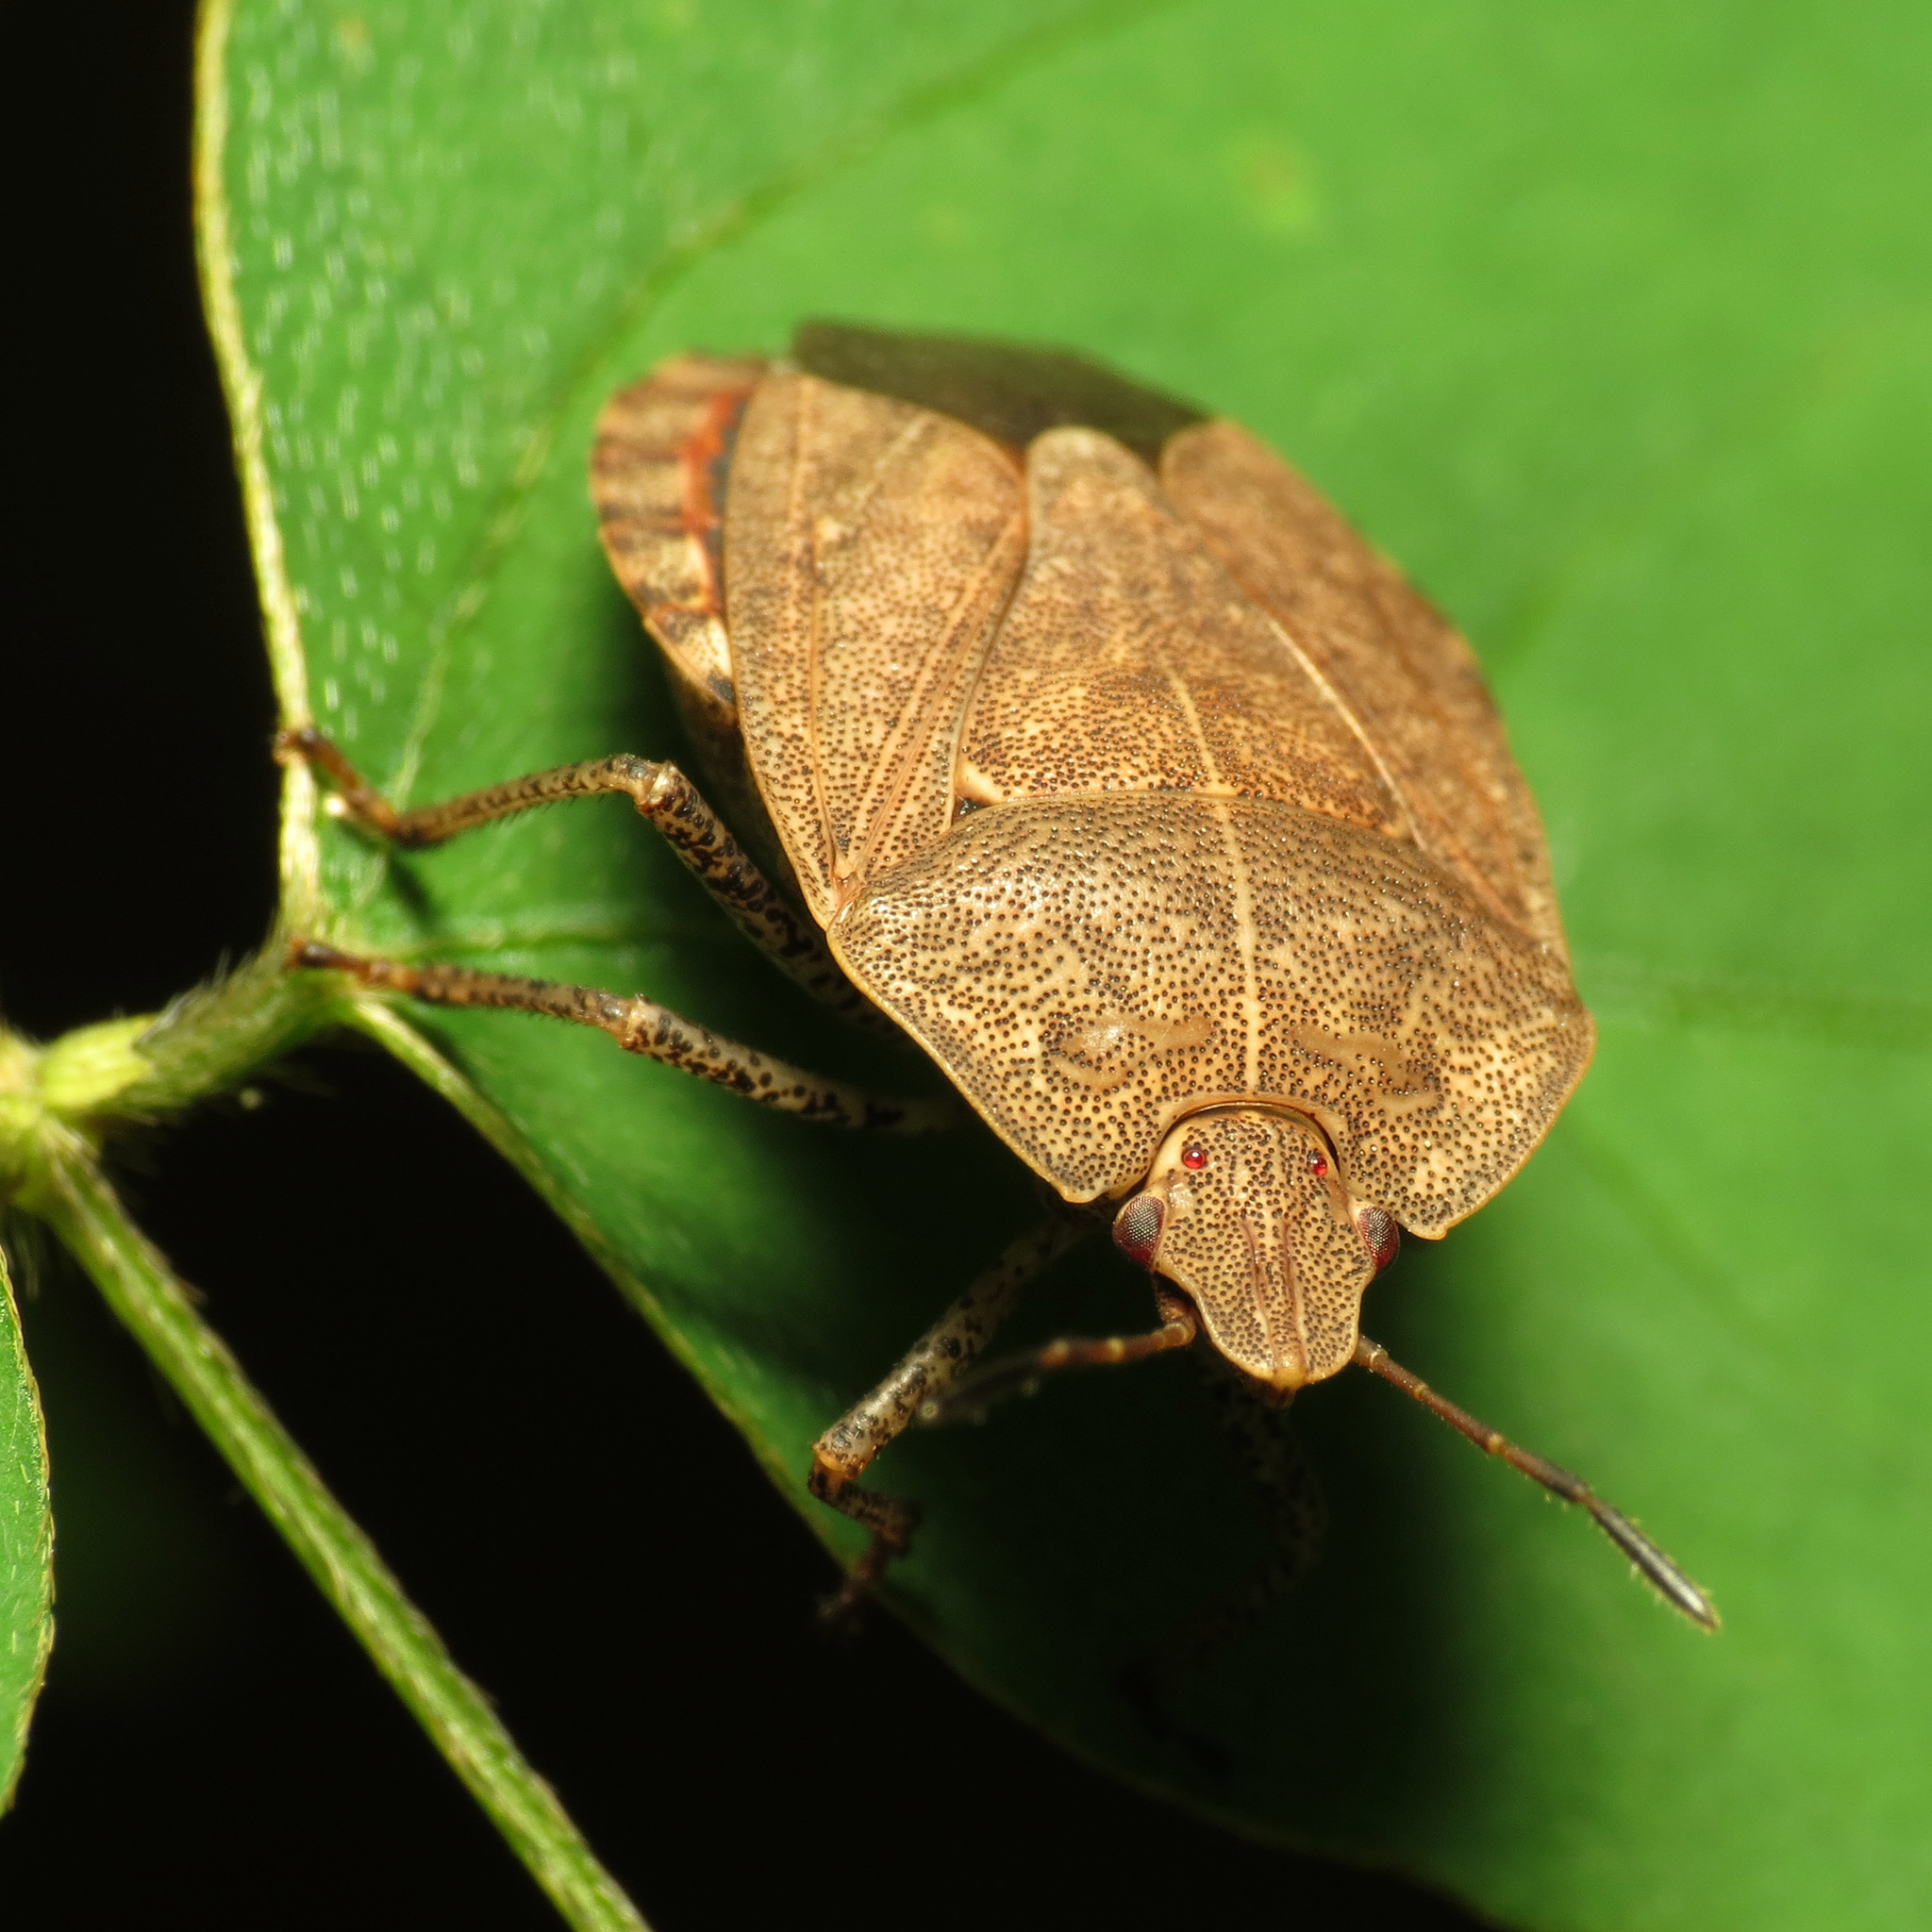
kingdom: Animalia
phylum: Arthropoda
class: Insecta
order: Hemiptera
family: Pentatomidae
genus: Menecles
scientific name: Menecles insertus
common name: Elf shoe stink bug
